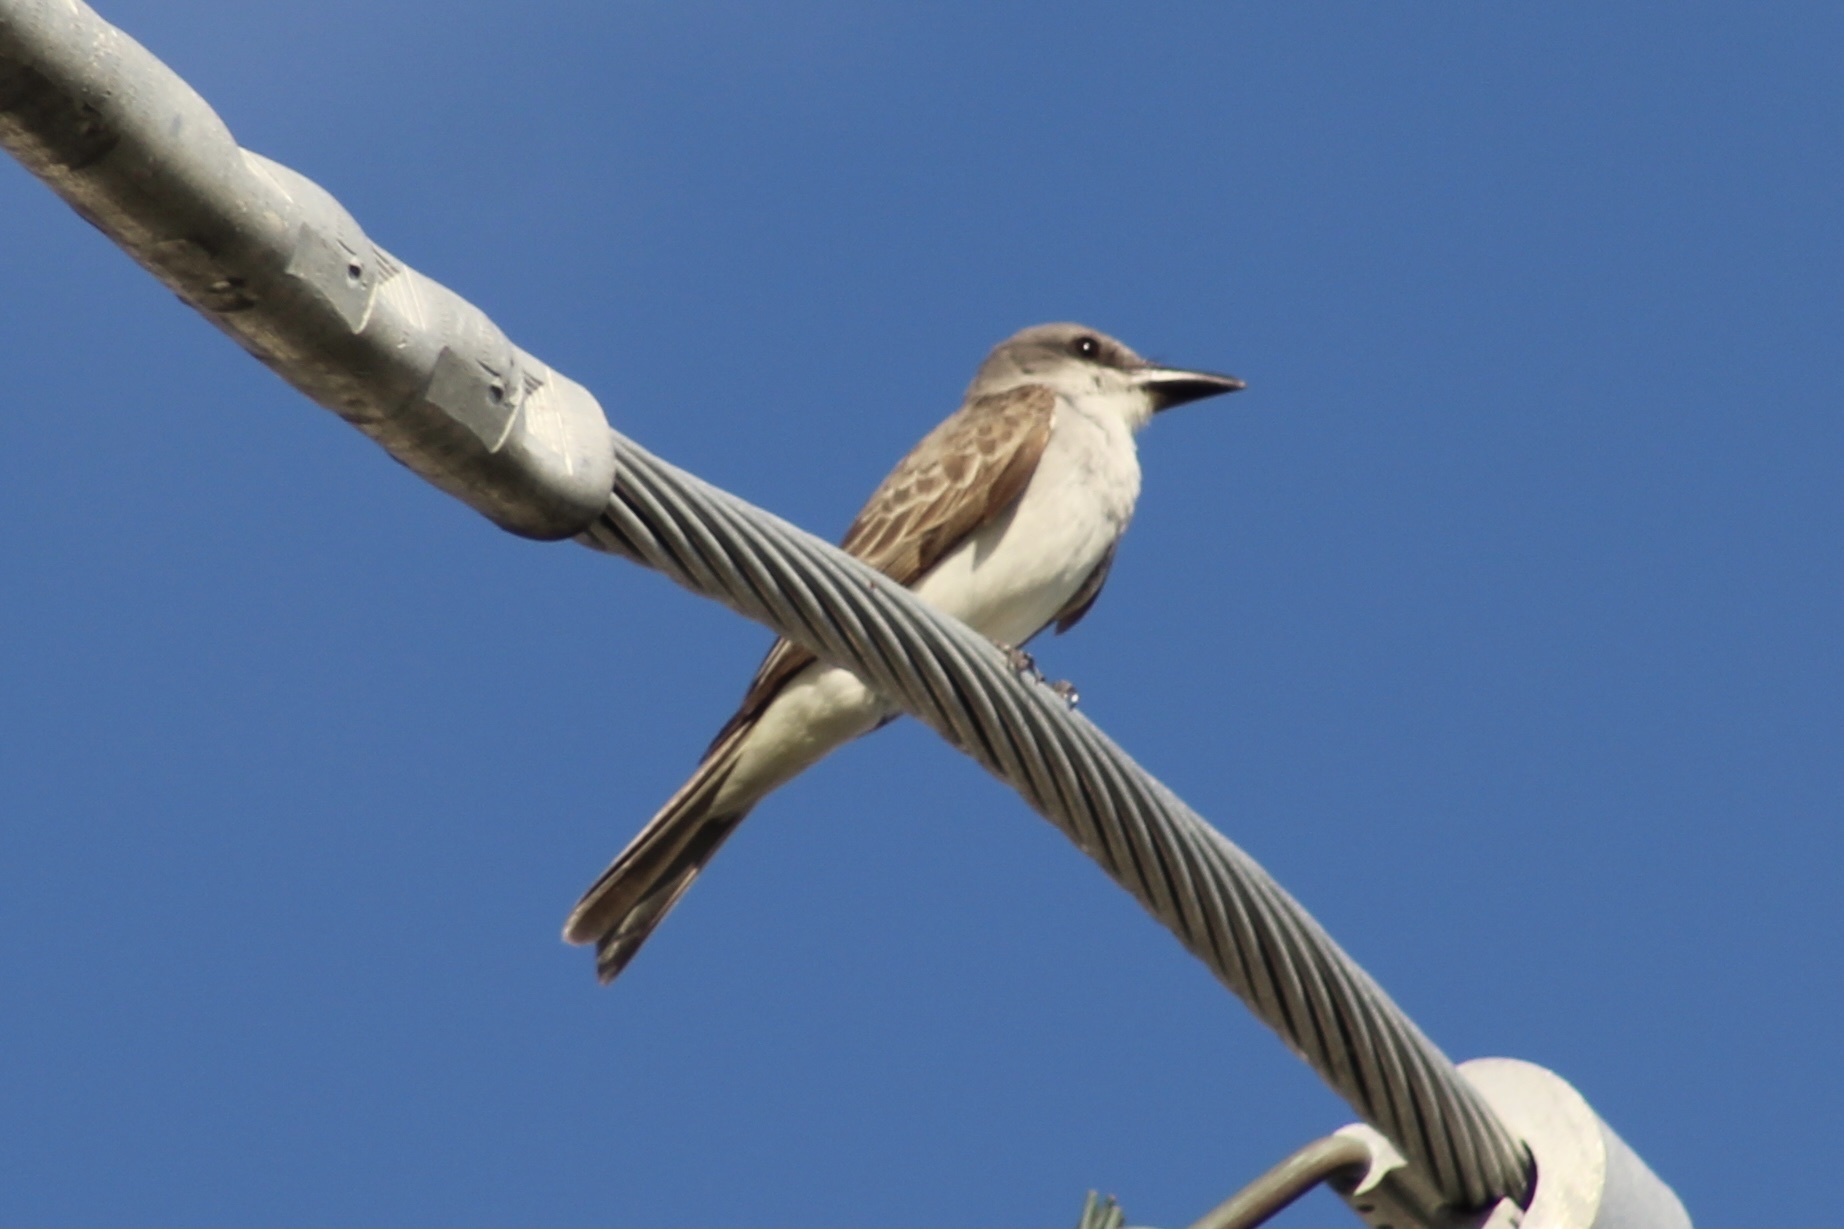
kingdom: Animalia
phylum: Chordata
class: Aves
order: Passeriformes
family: Tyrannidae
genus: Tyrannus
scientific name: Tyrannus dominicensis
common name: Gray kingbird
